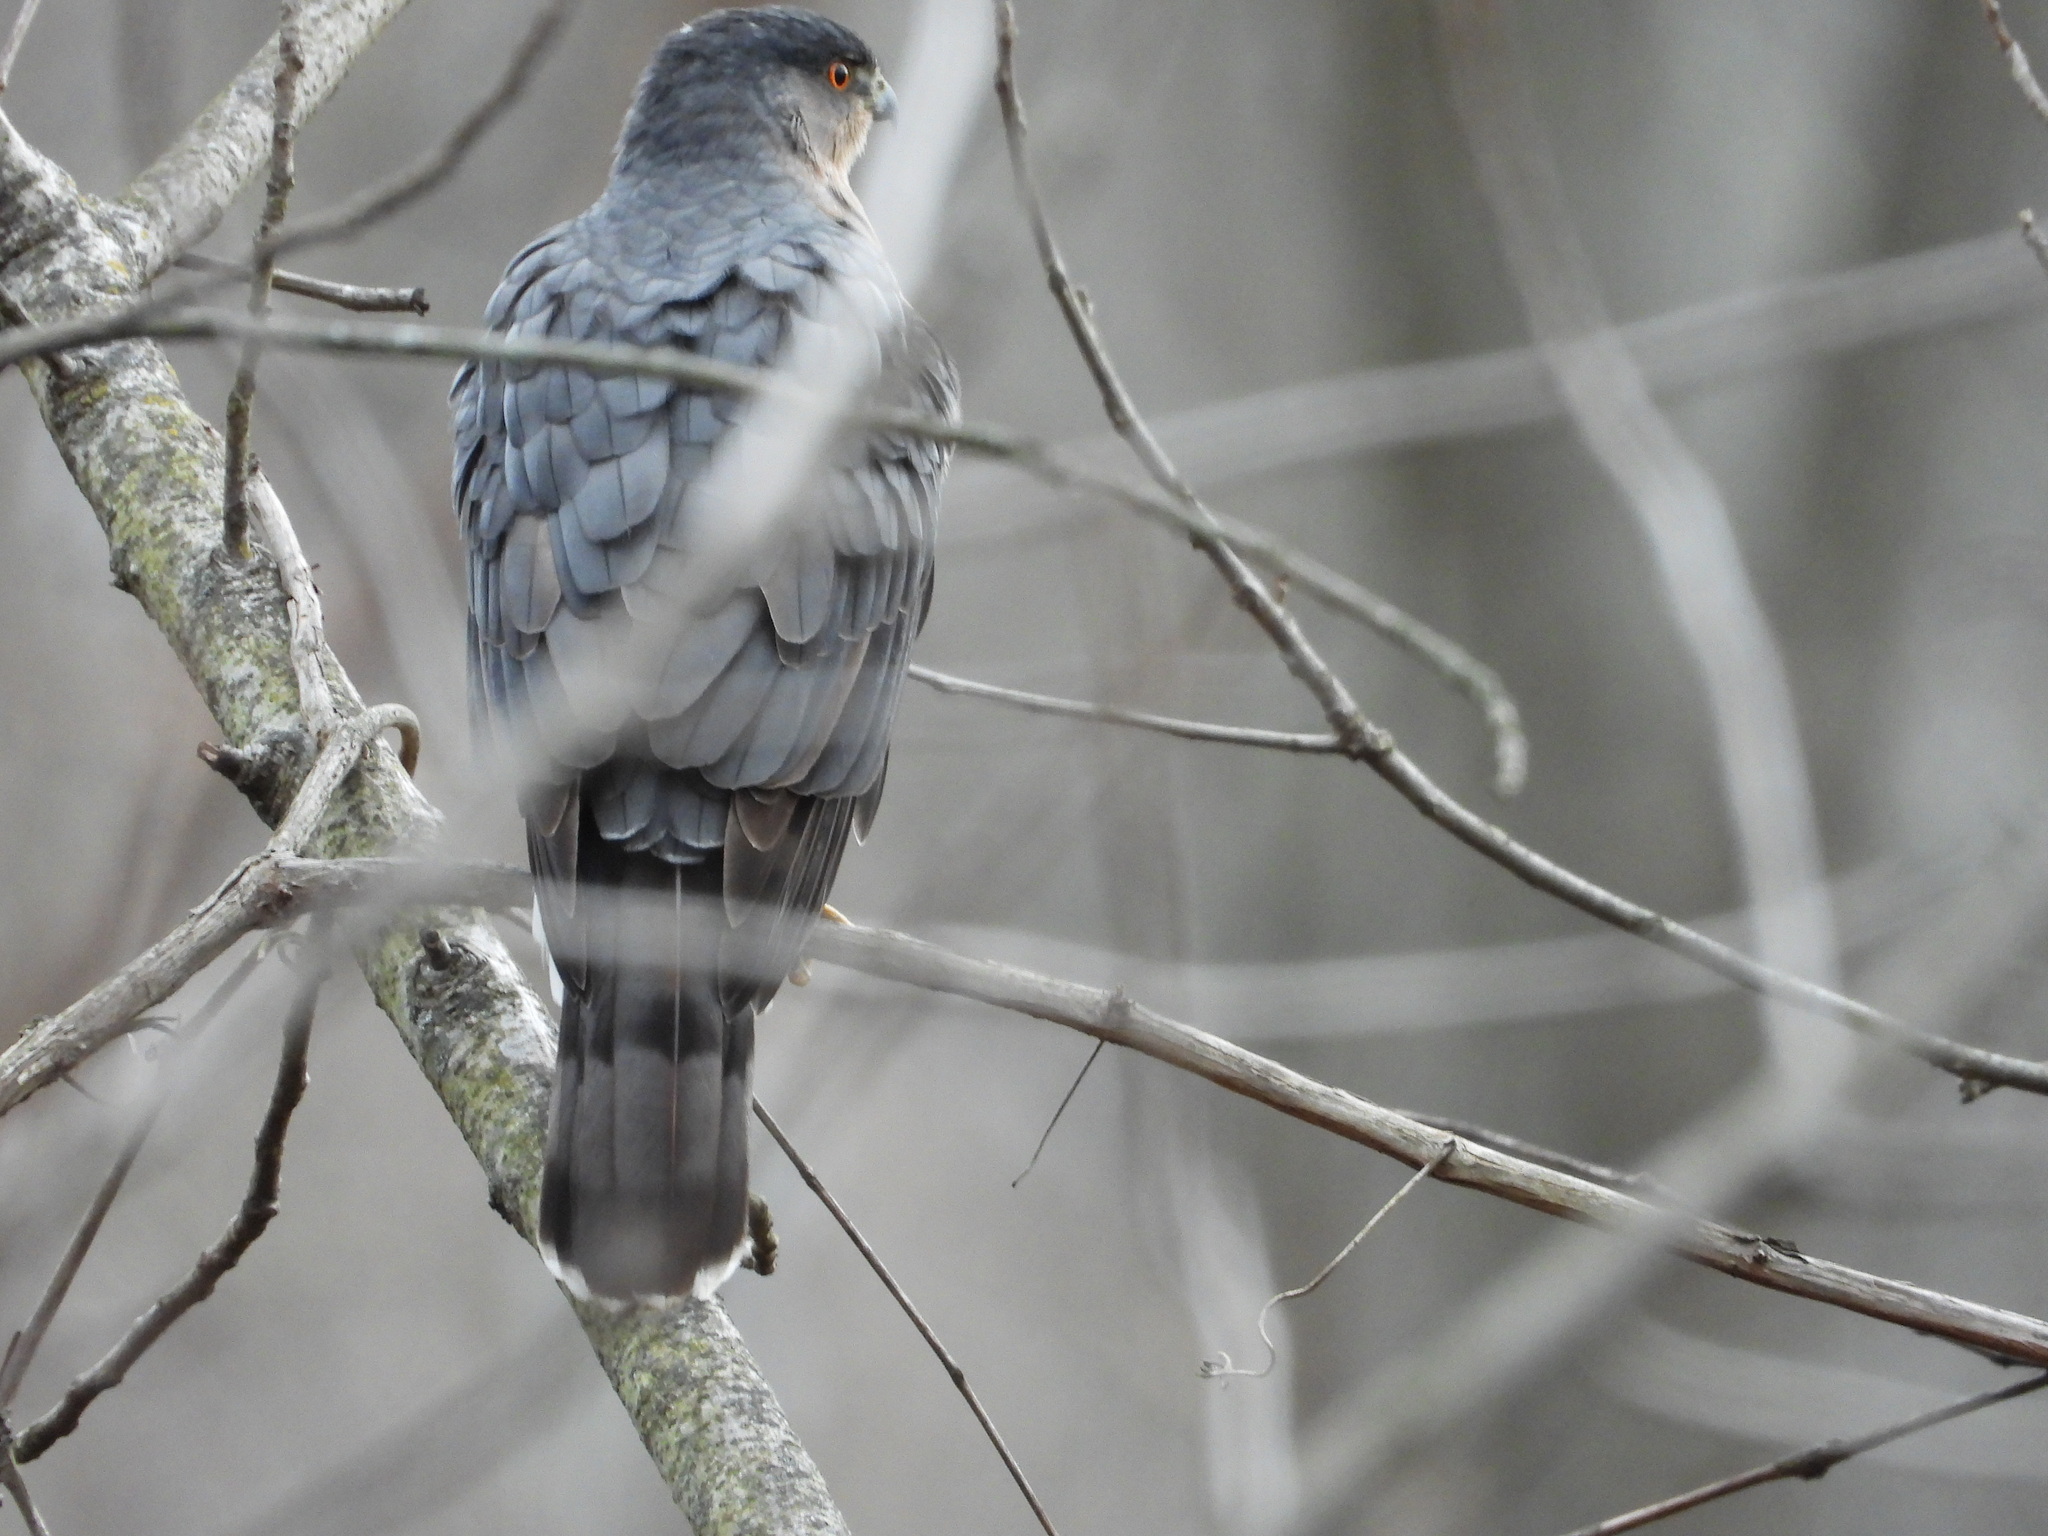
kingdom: Animalia
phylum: Chordata
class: Aves
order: Accipitriformes
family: Accipitridae
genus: Accipiter
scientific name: Accipiter cooperii
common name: Cooper's hawk
